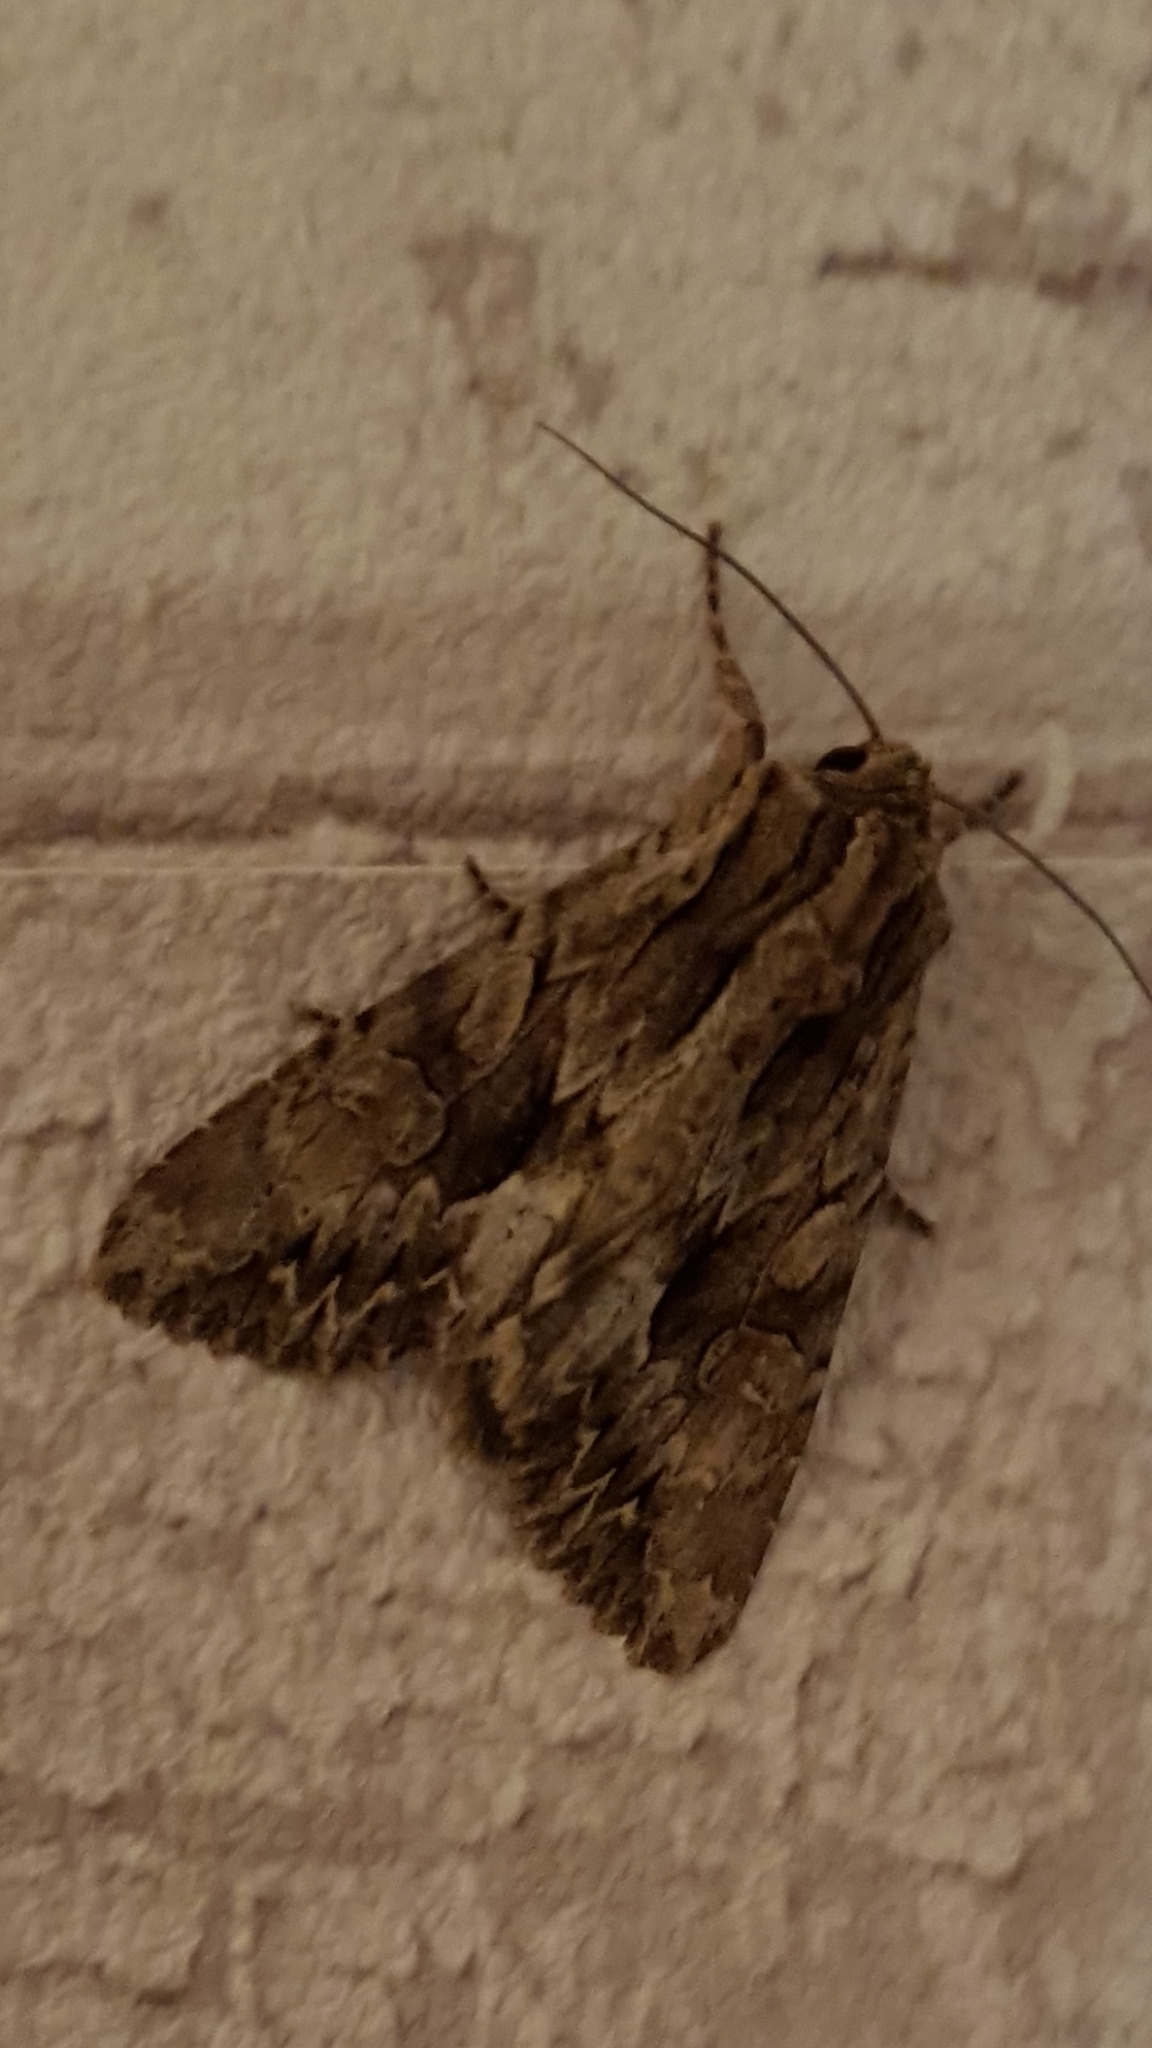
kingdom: Animalia
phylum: Arthropoda
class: Insecta
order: Lepidoptera
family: Noctuidae
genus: Apamea
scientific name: Apamea monoglypha
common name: Dark arches
